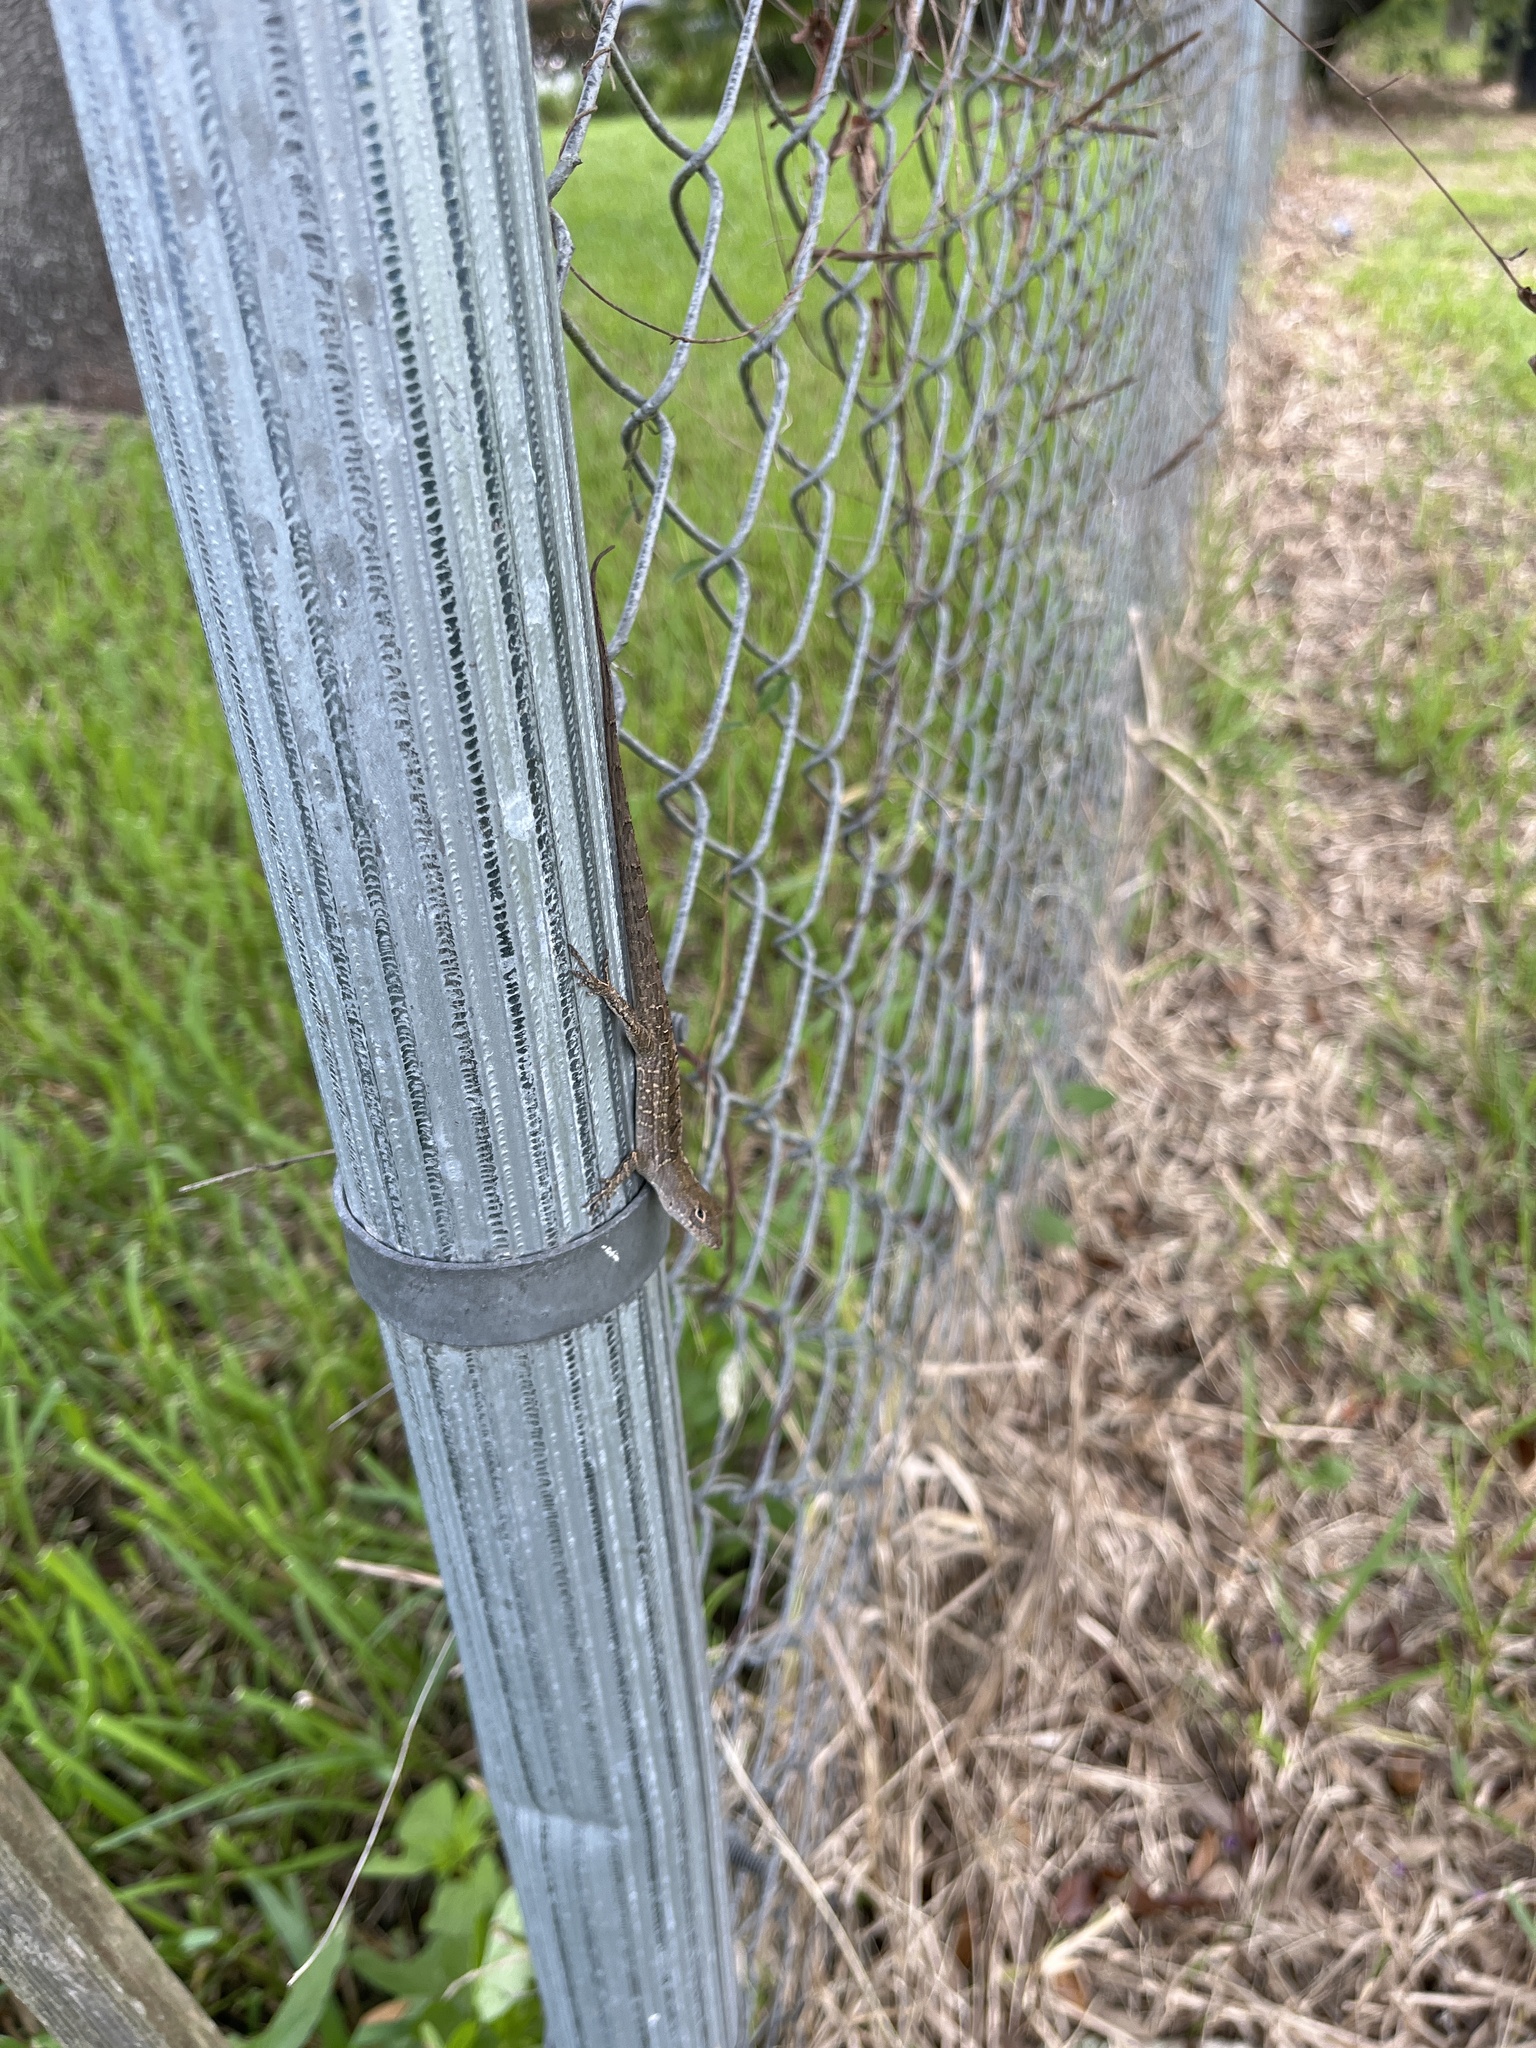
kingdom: Animalia
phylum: Chordata
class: Squamata
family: Dactyloidae
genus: Anolis
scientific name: Anolis sagrei
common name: Brown anole
